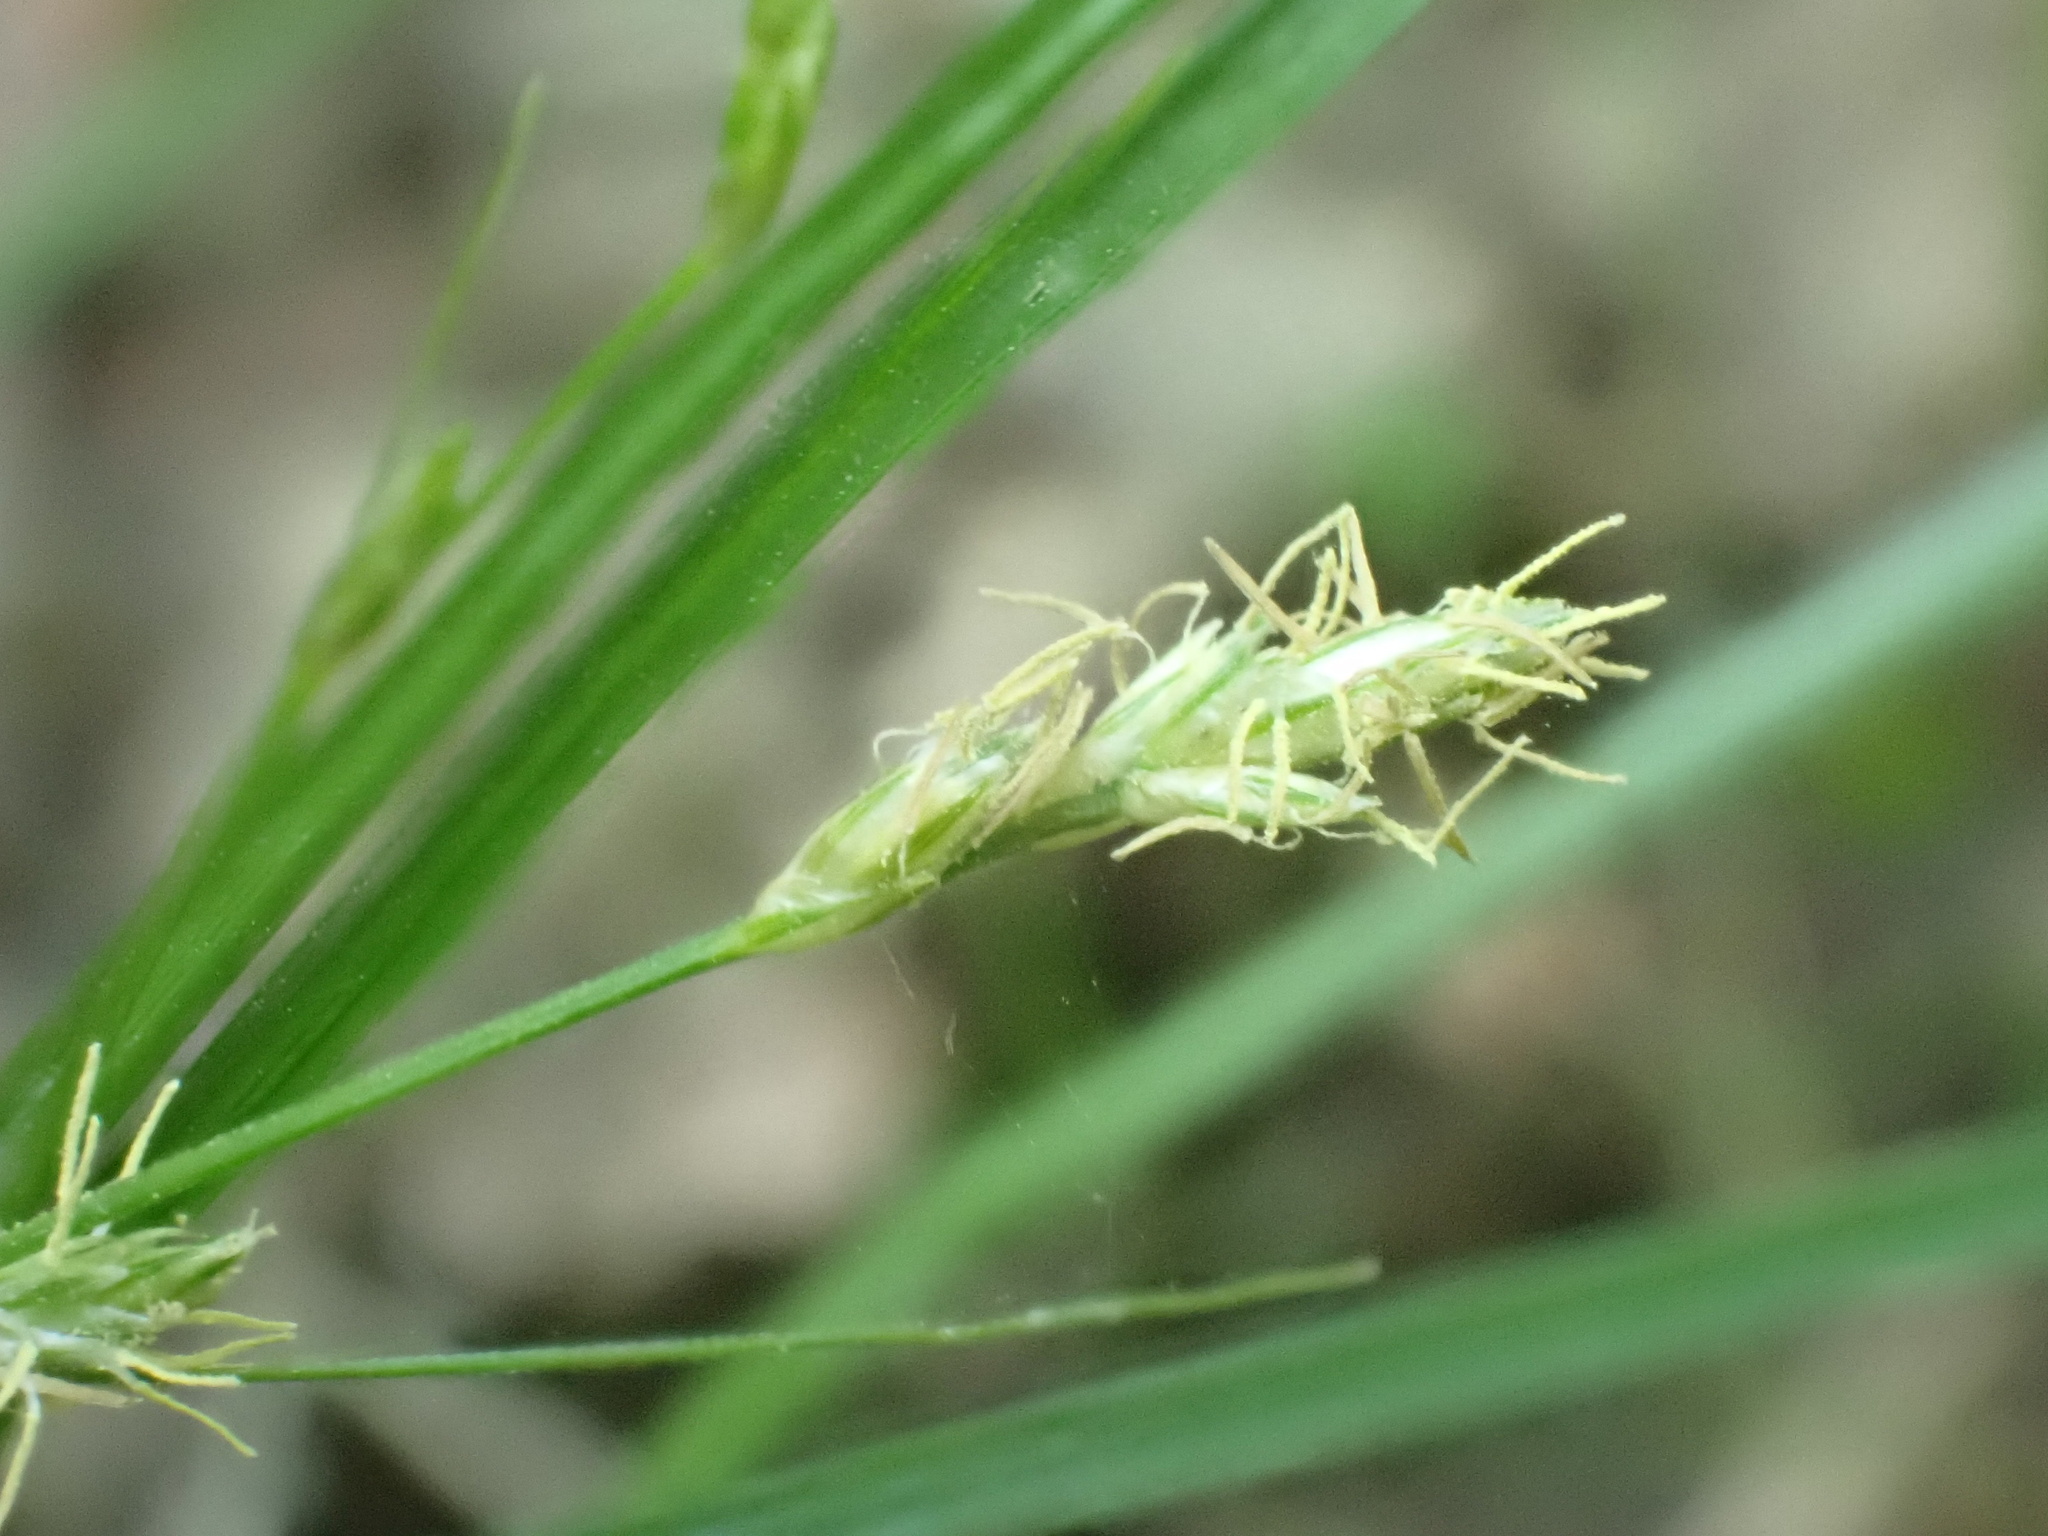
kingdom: Plantae
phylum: Tracheophyta
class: Liliopsida
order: Poales
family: Cyperaceae
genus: Carex
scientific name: Carex remota
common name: Remote sedge
